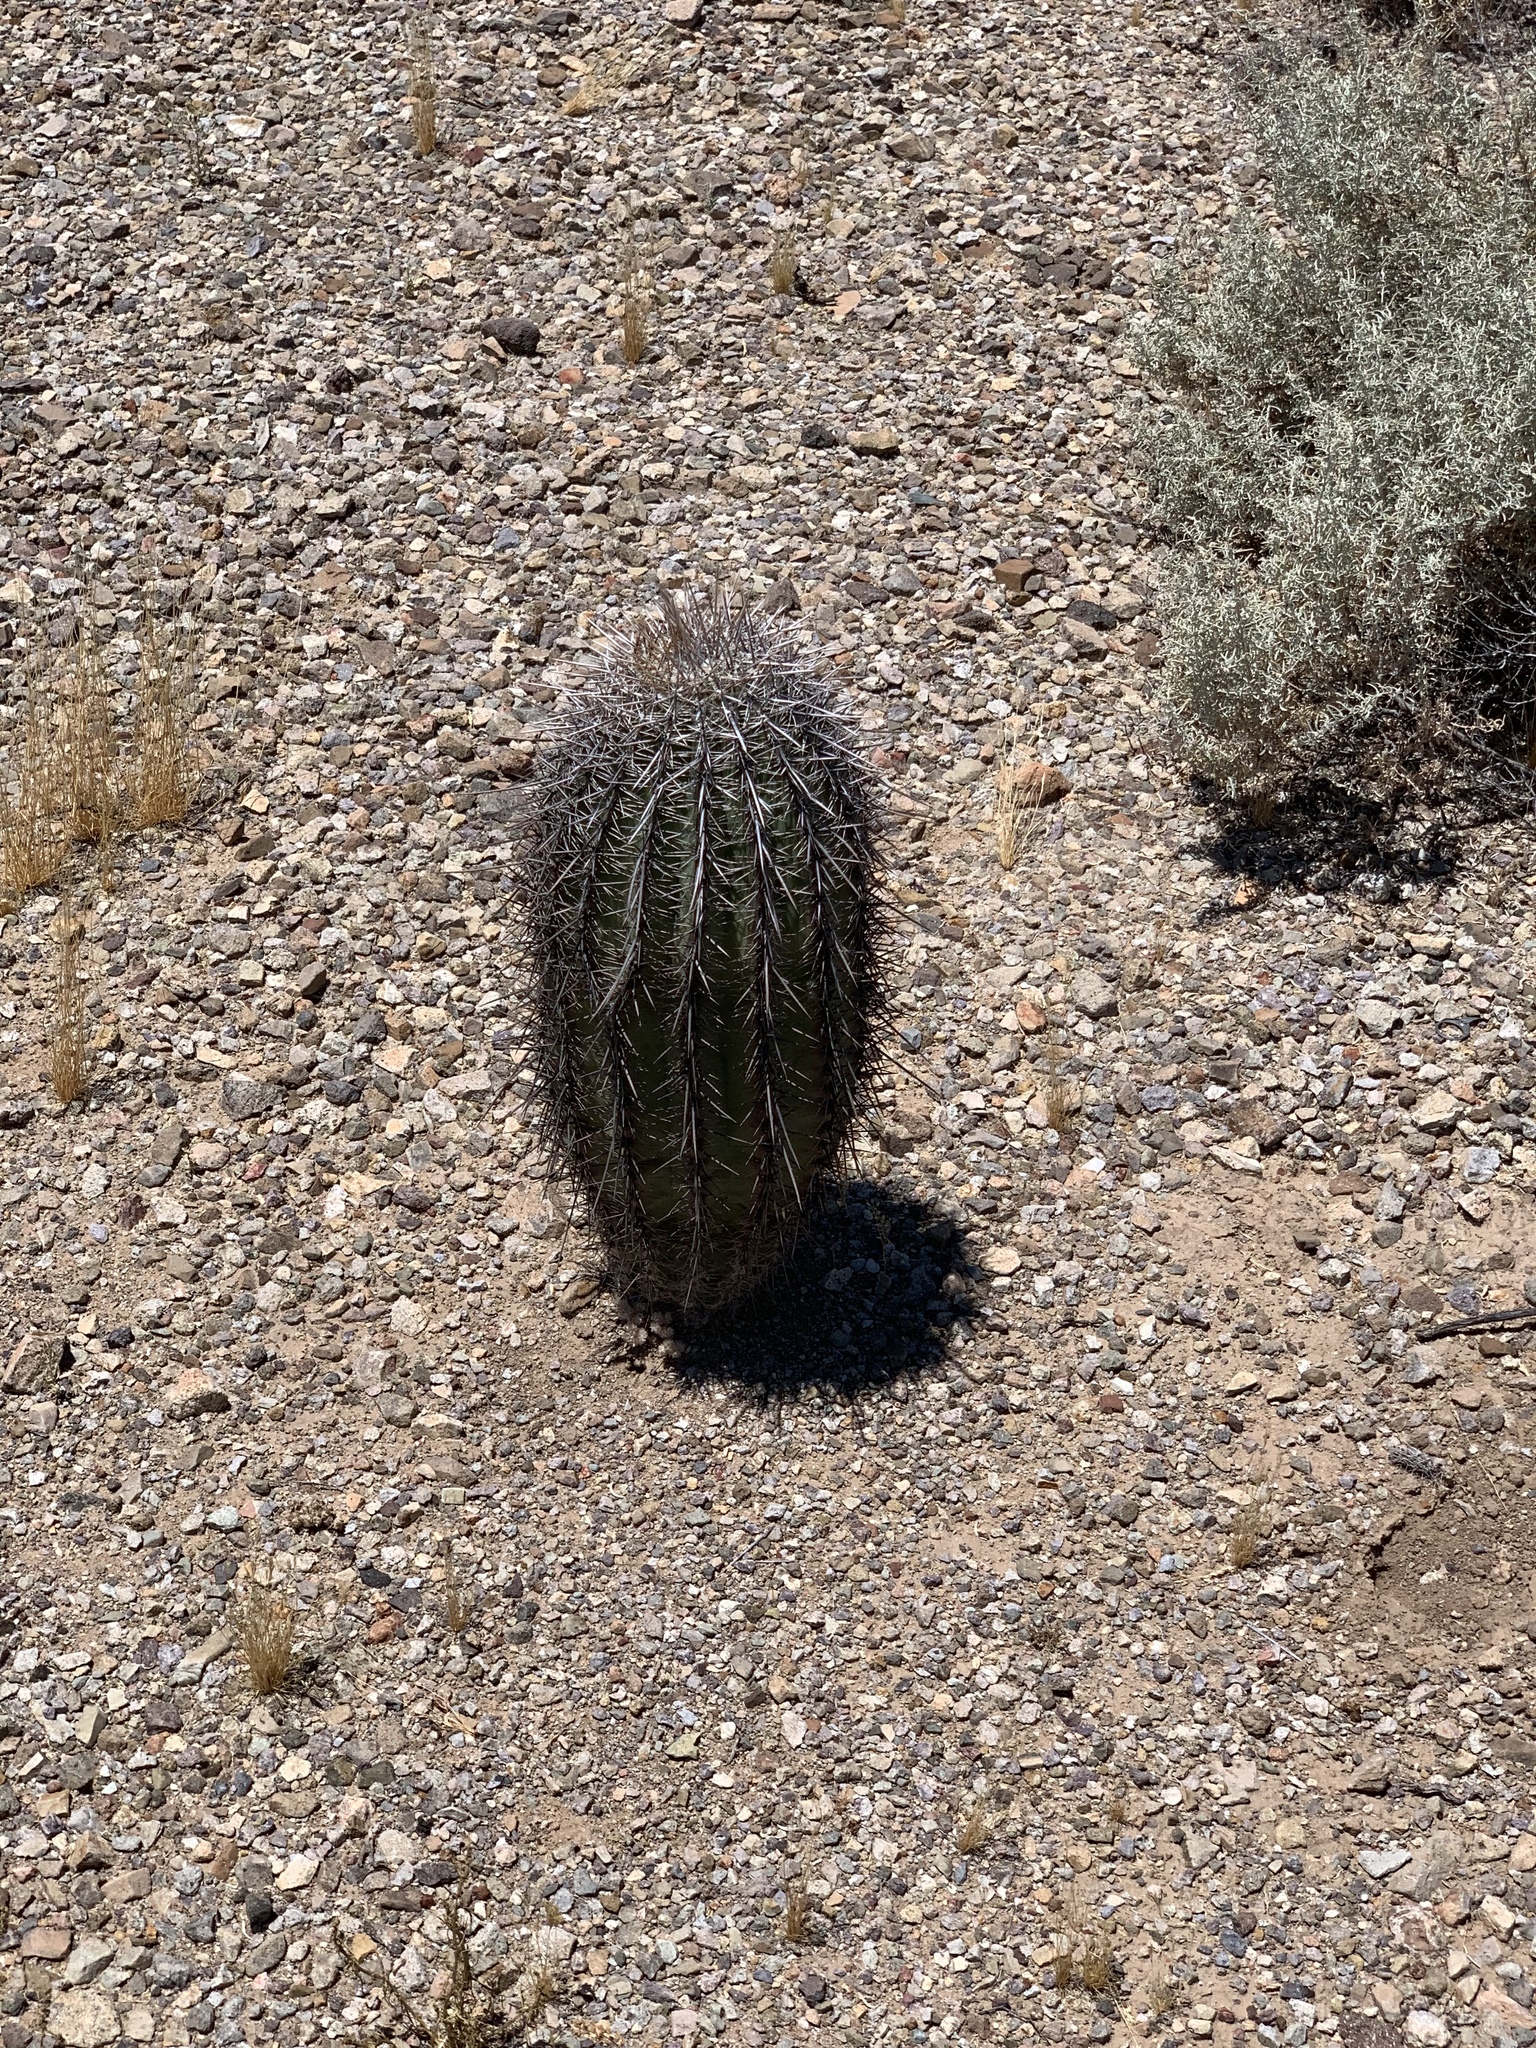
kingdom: Plantae
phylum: Tracheophyta
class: Magnoliopsida
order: Caryophyllales
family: Cactaceae
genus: Carnegiea
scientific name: Carnegiea gigantea
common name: Saguaro
